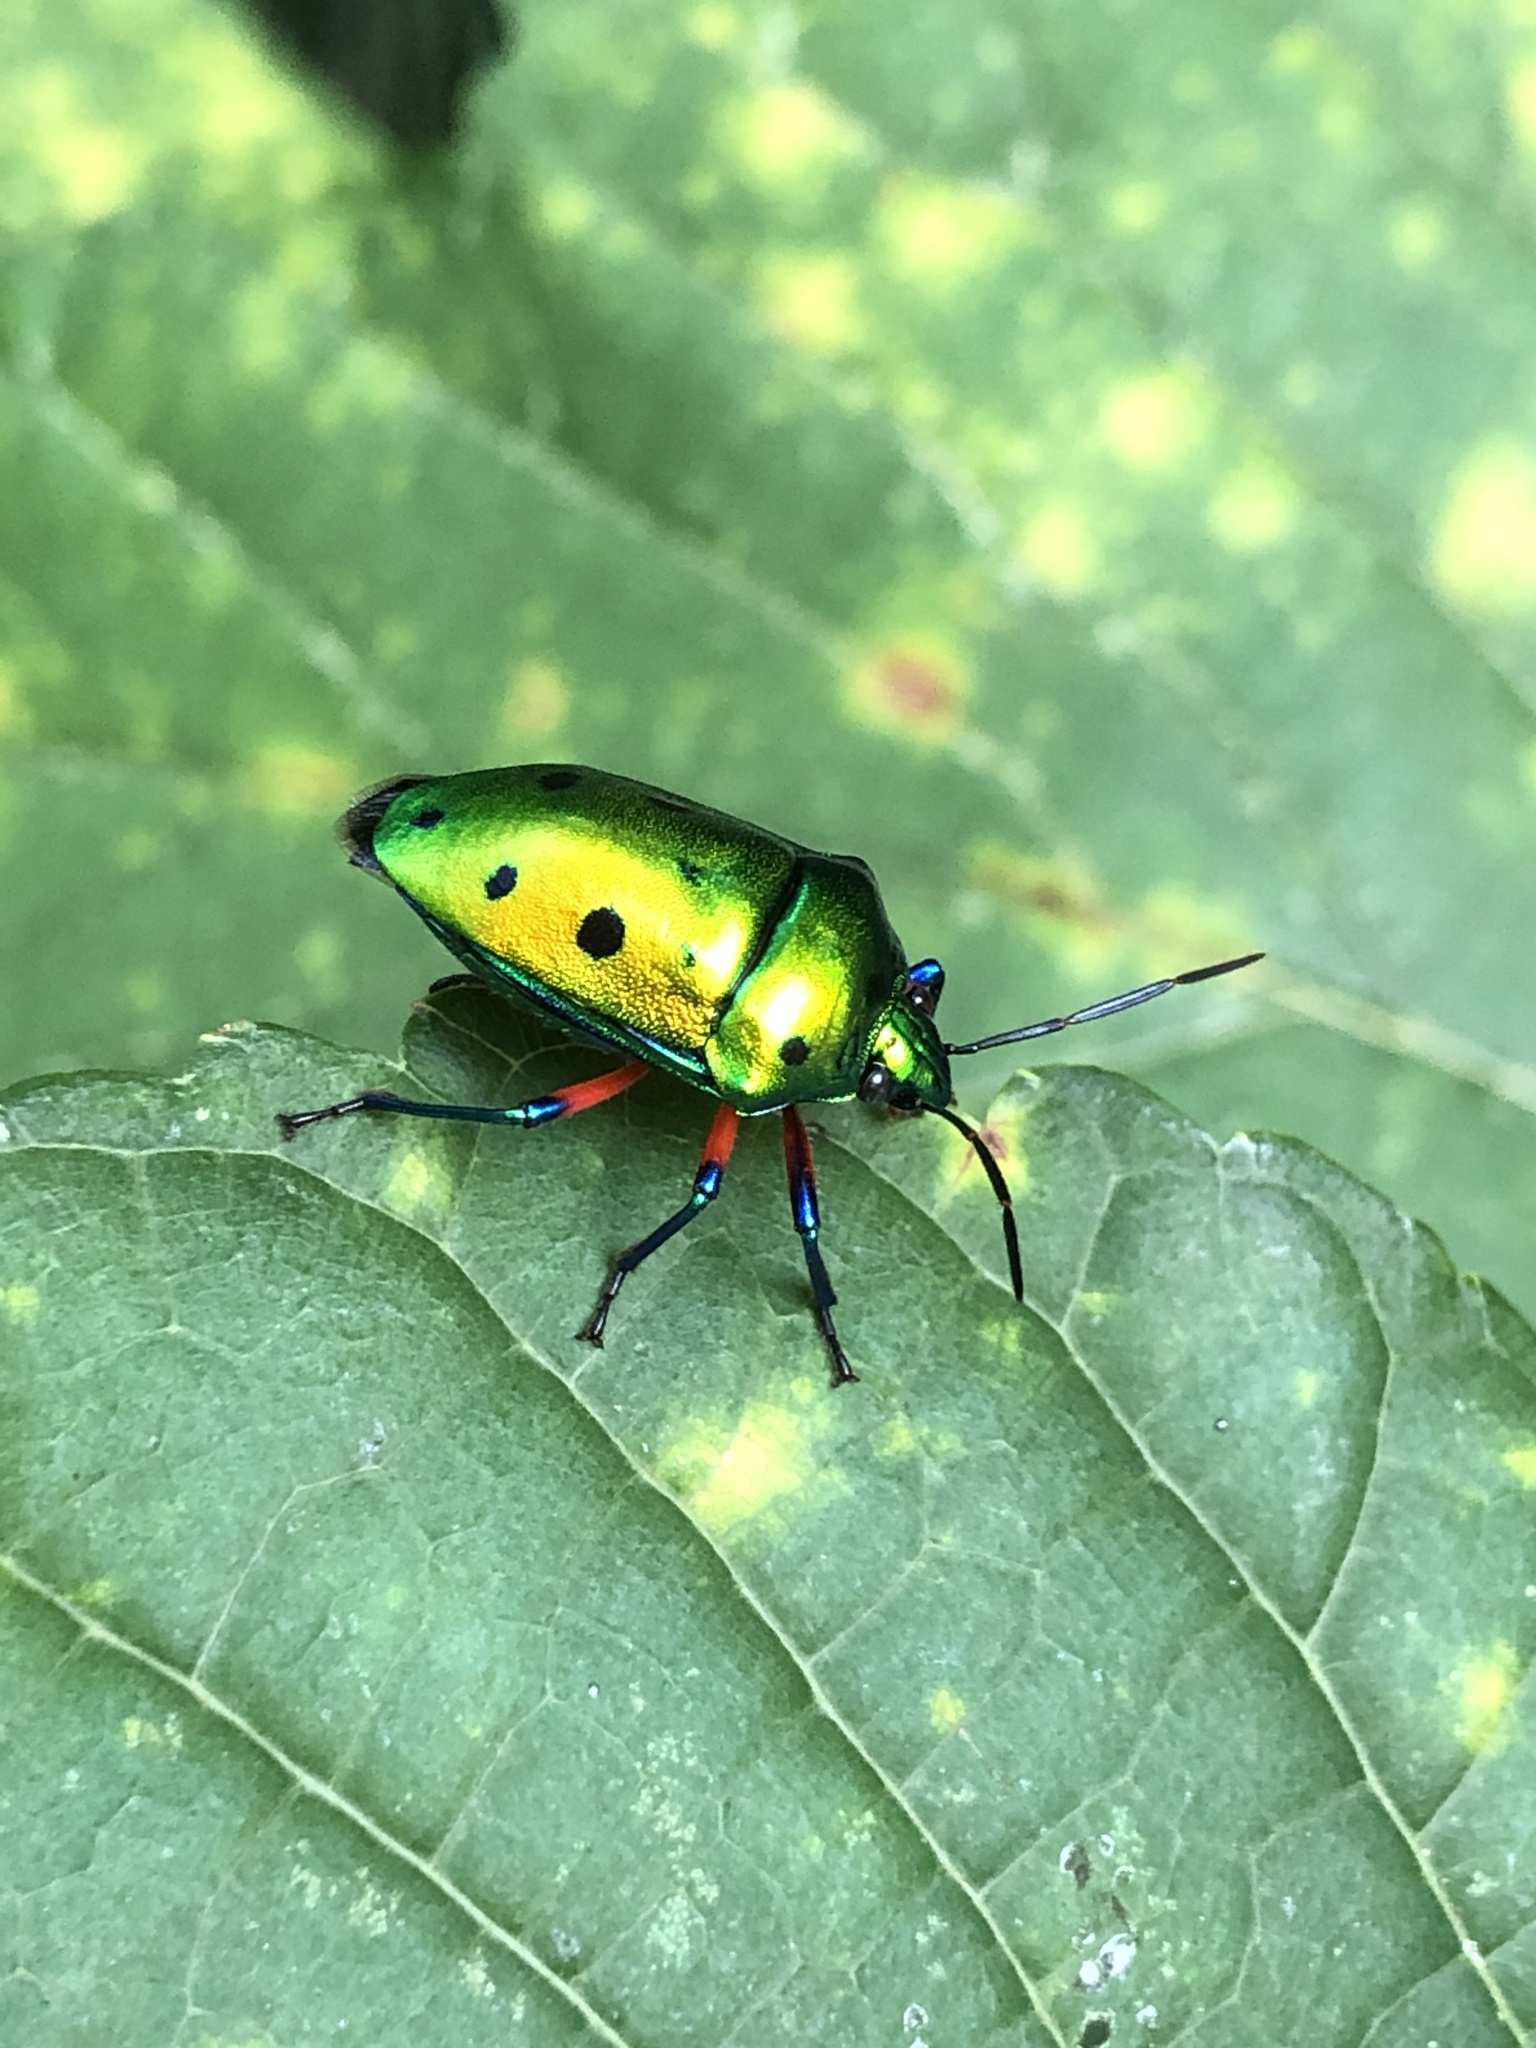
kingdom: Animalia
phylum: Arthropoda
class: Insecta
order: Hemiptera
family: Scutelleridae
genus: Calliphara
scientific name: Calliphara excellens
